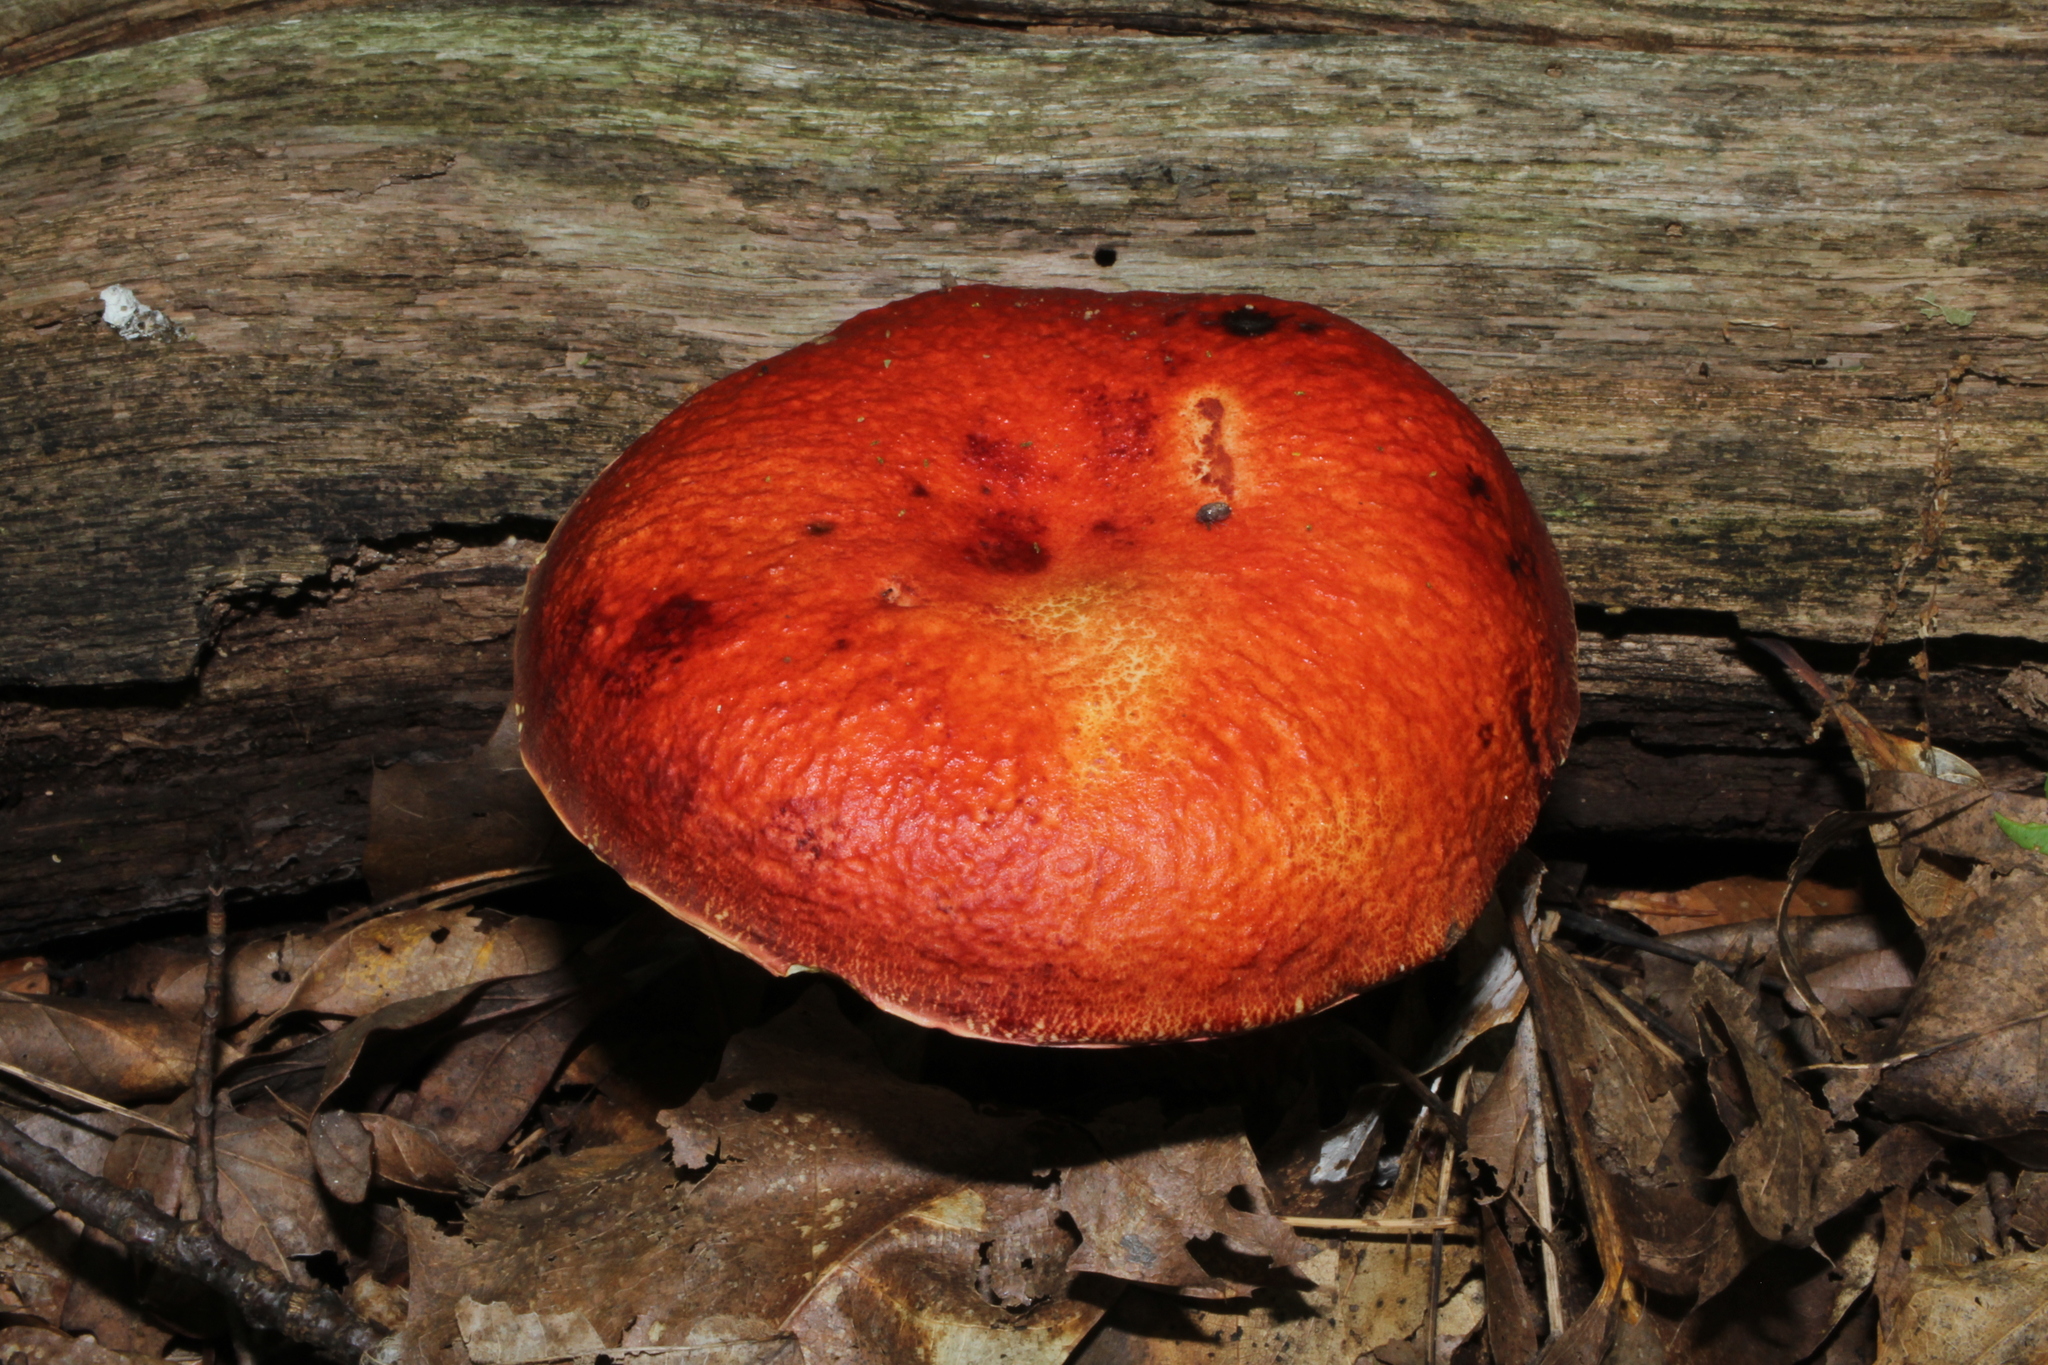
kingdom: Fungi
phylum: Basidiomycota
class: Agaricomycetes
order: Boletales
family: Boletaceae
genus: Butyriboletus
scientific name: Butyriboletus frostii
